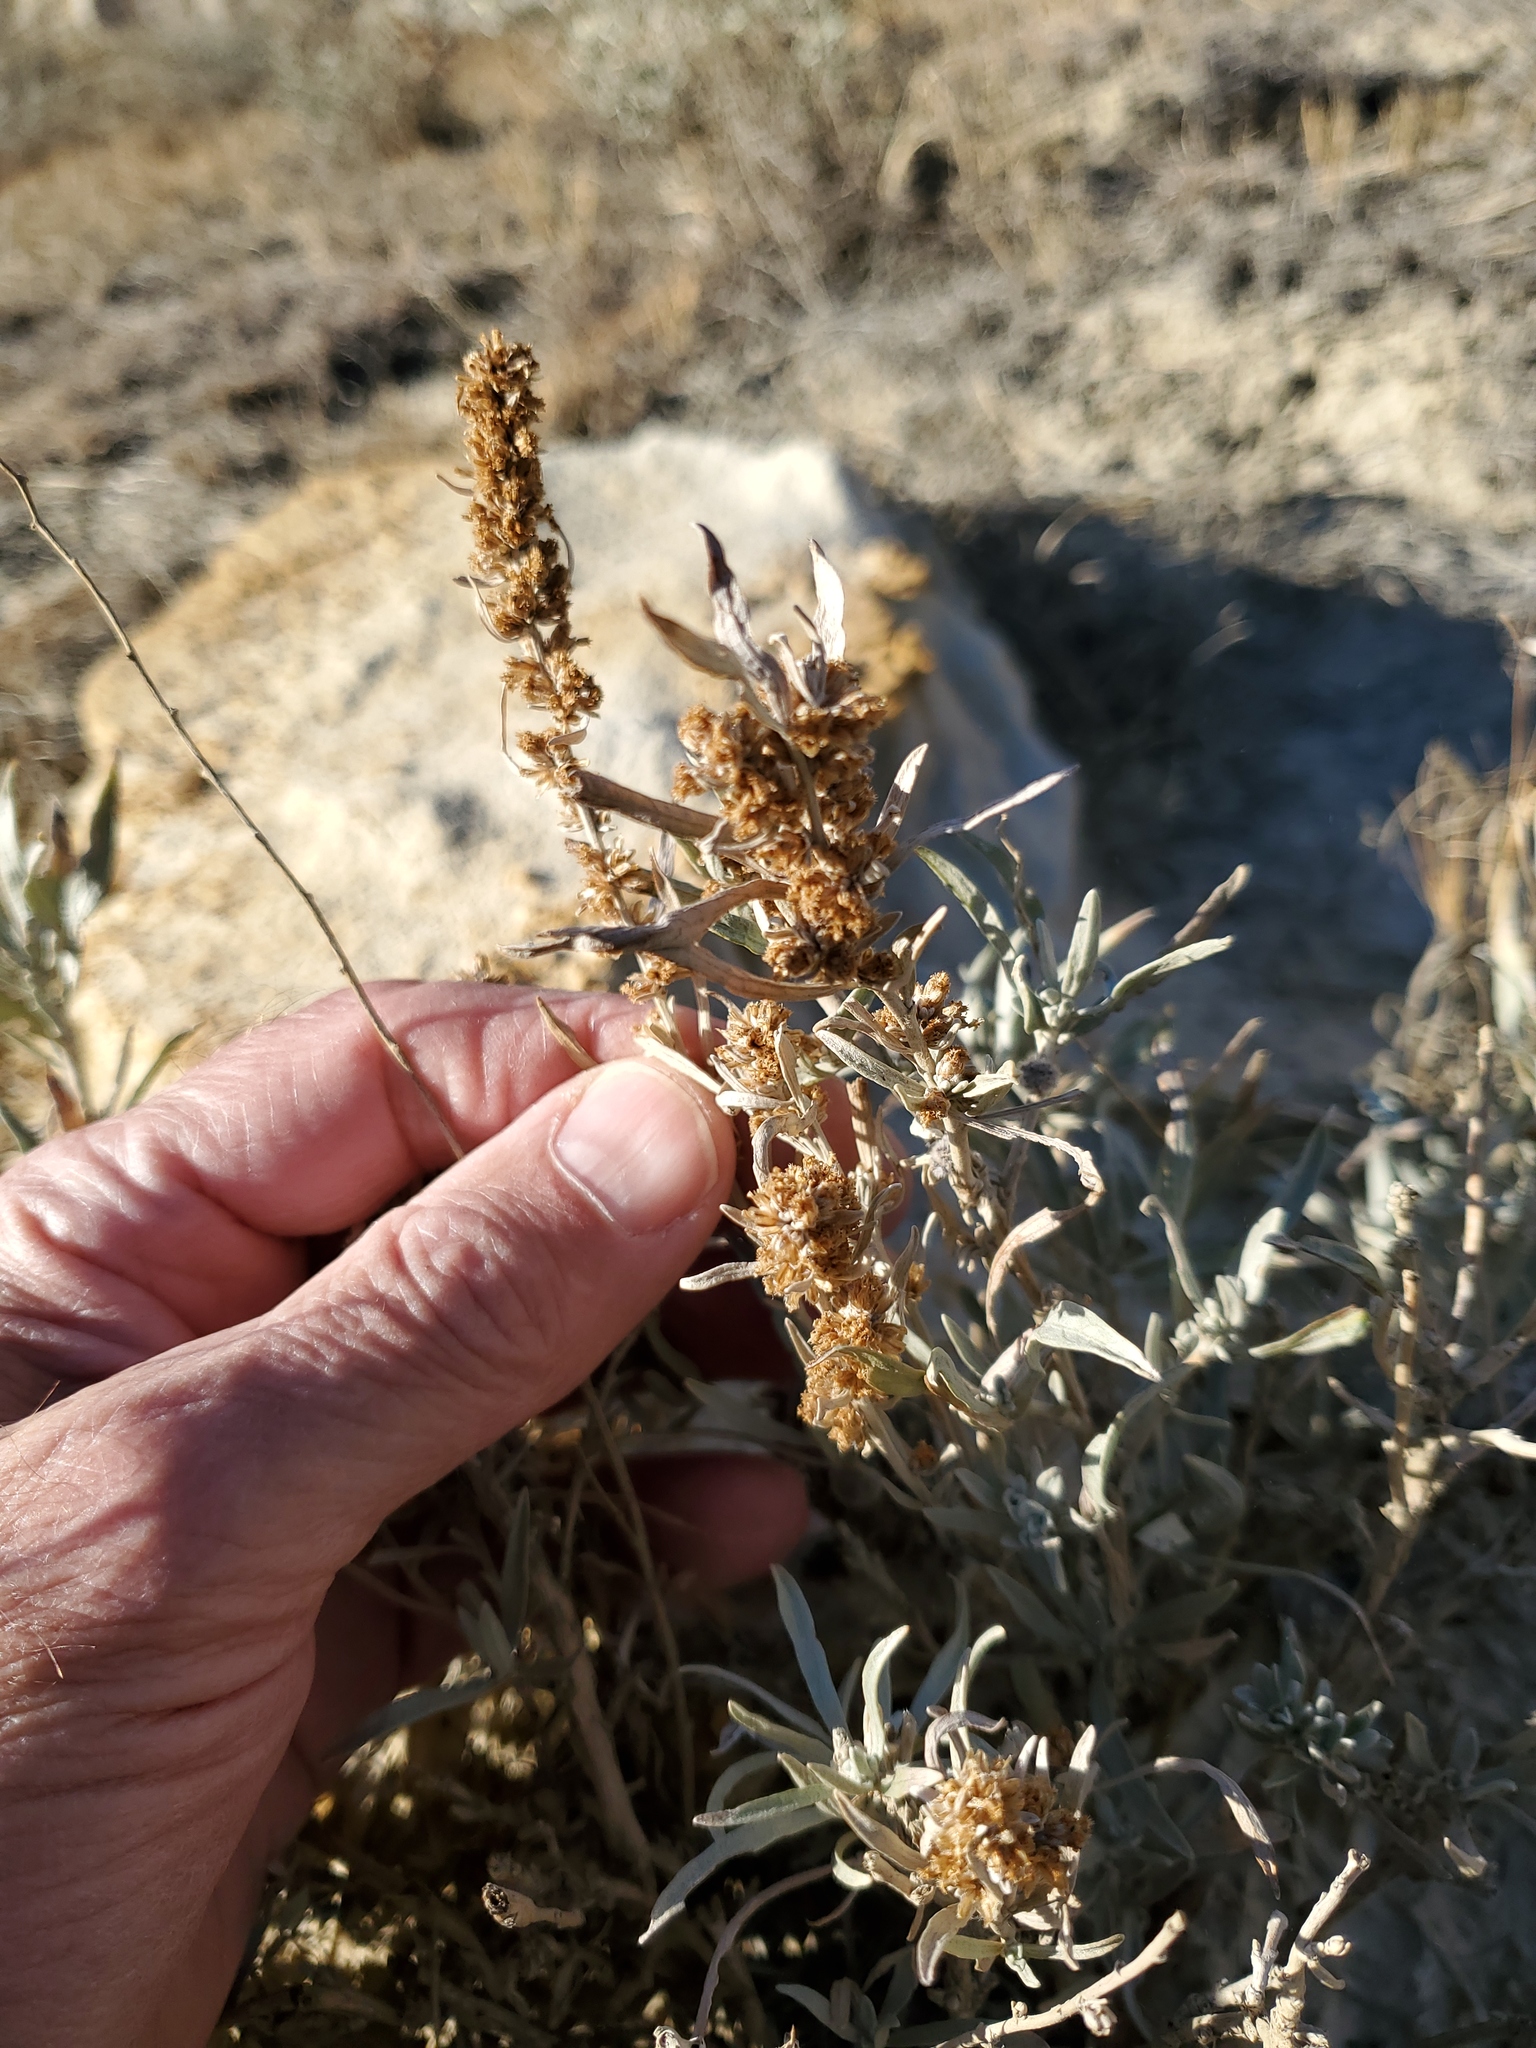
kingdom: Plantae
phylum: Tracheophyta
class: Magnoliopsida
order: Asterales
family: Asteraceae
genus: Artemisia
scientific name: Artemisia cana
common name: Silver sagebrush
